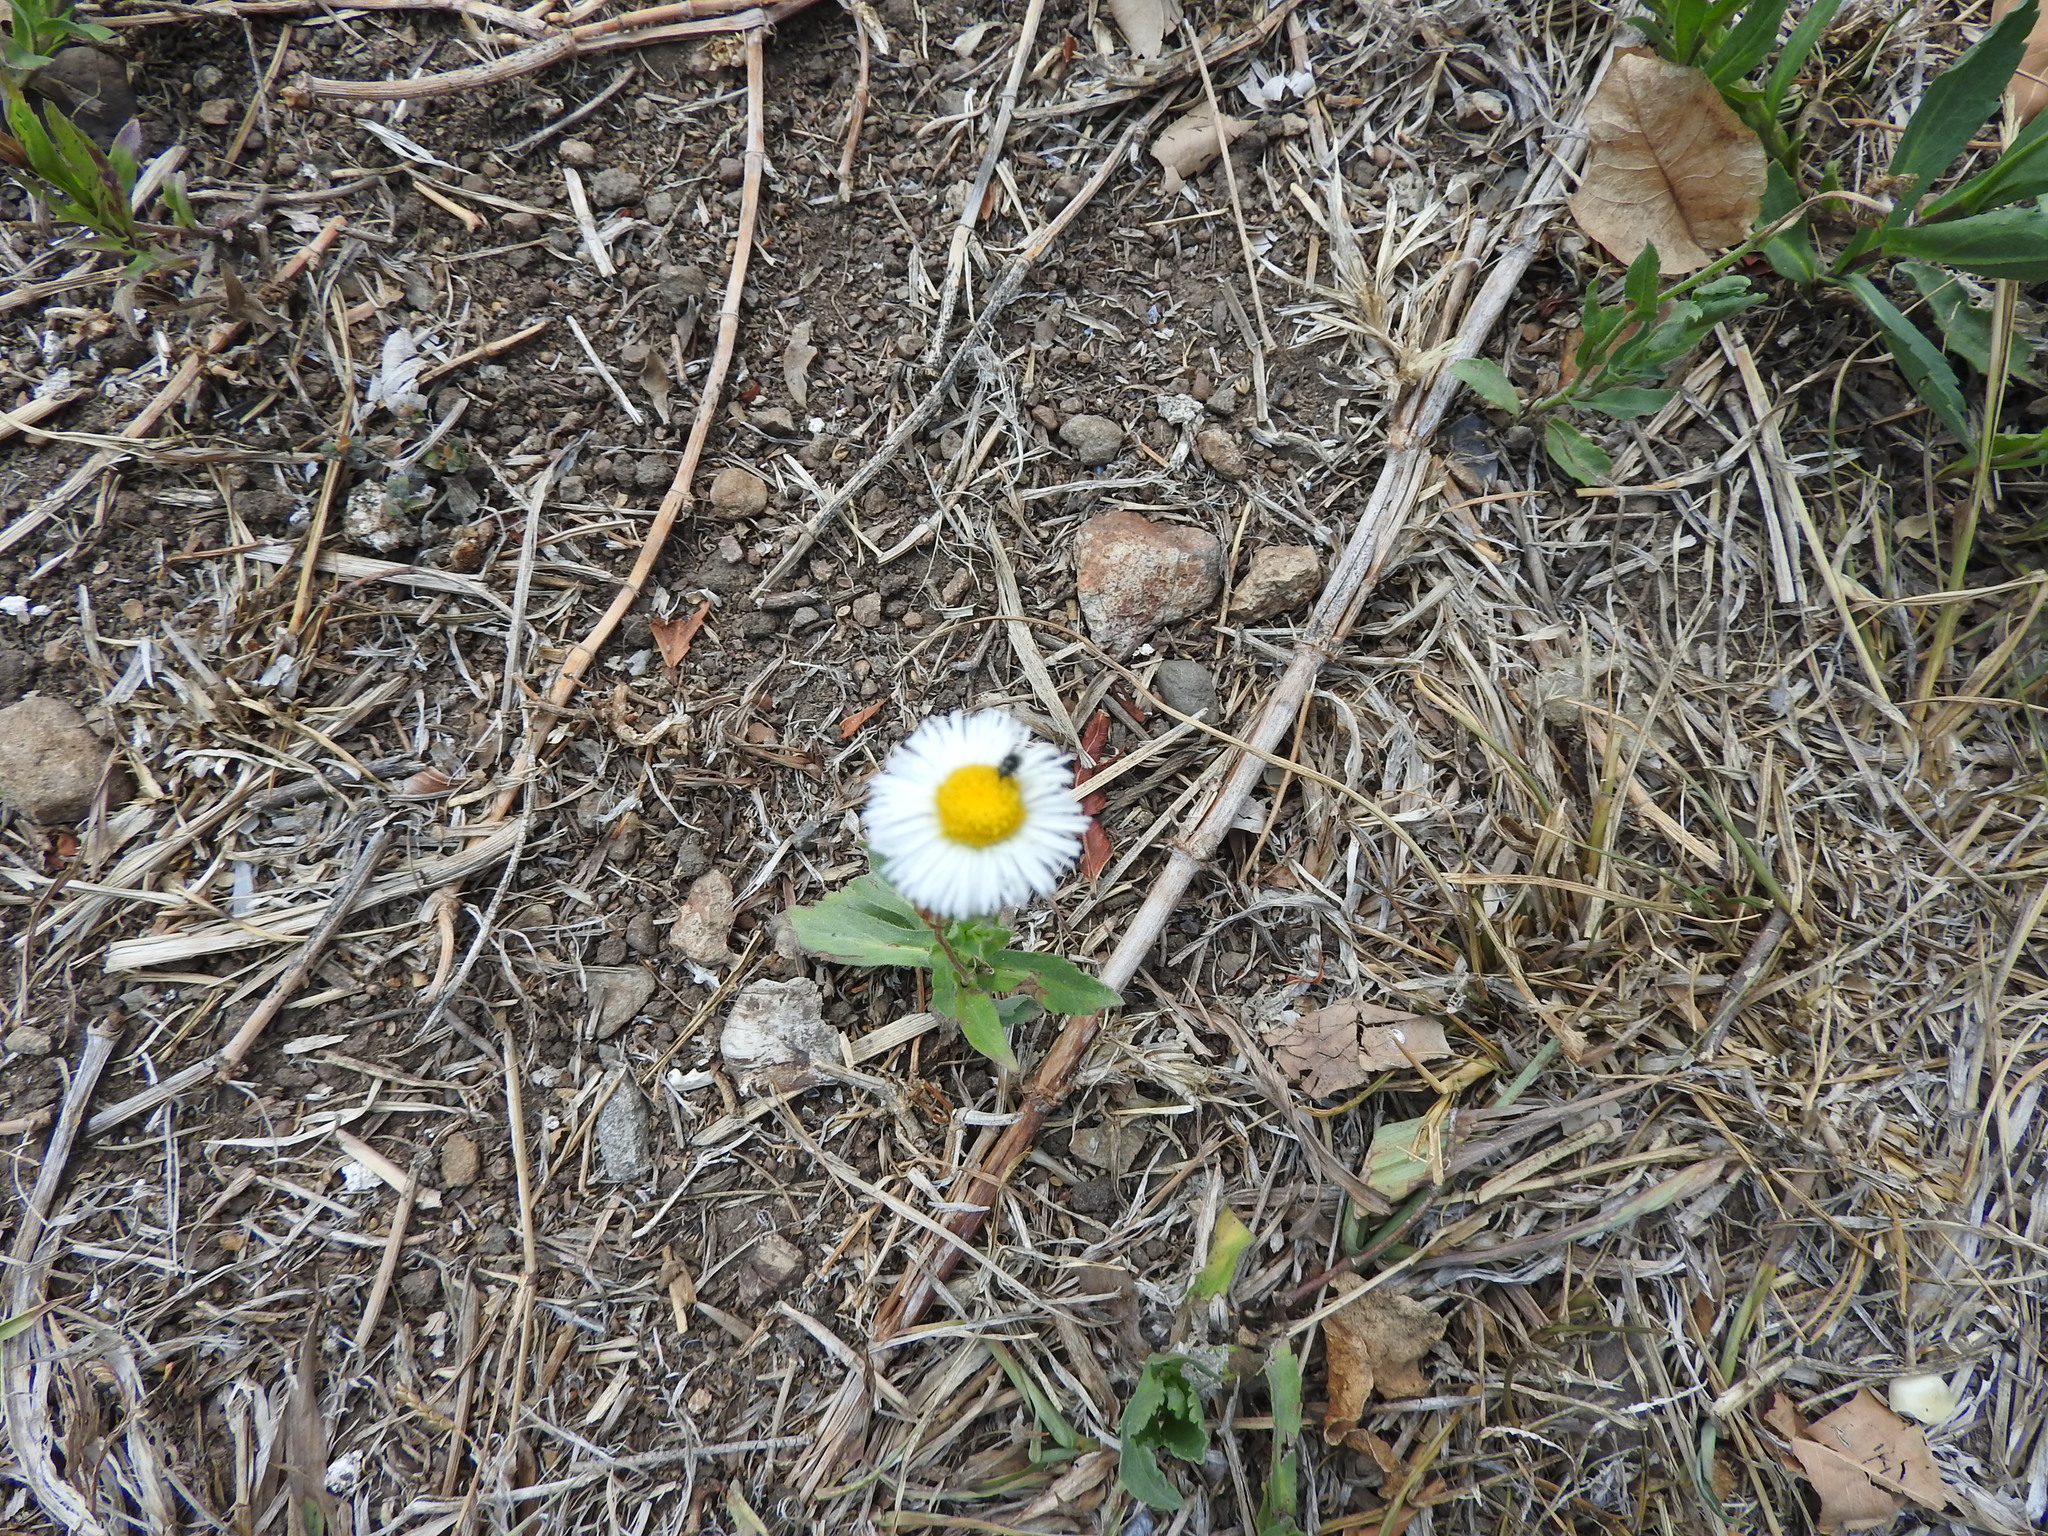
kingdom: Plantae
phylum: Tracheophyta
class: Magnoliopsida
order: Asterales
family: Asteraceae
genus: Erigeron
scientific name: Erigeron longipes
